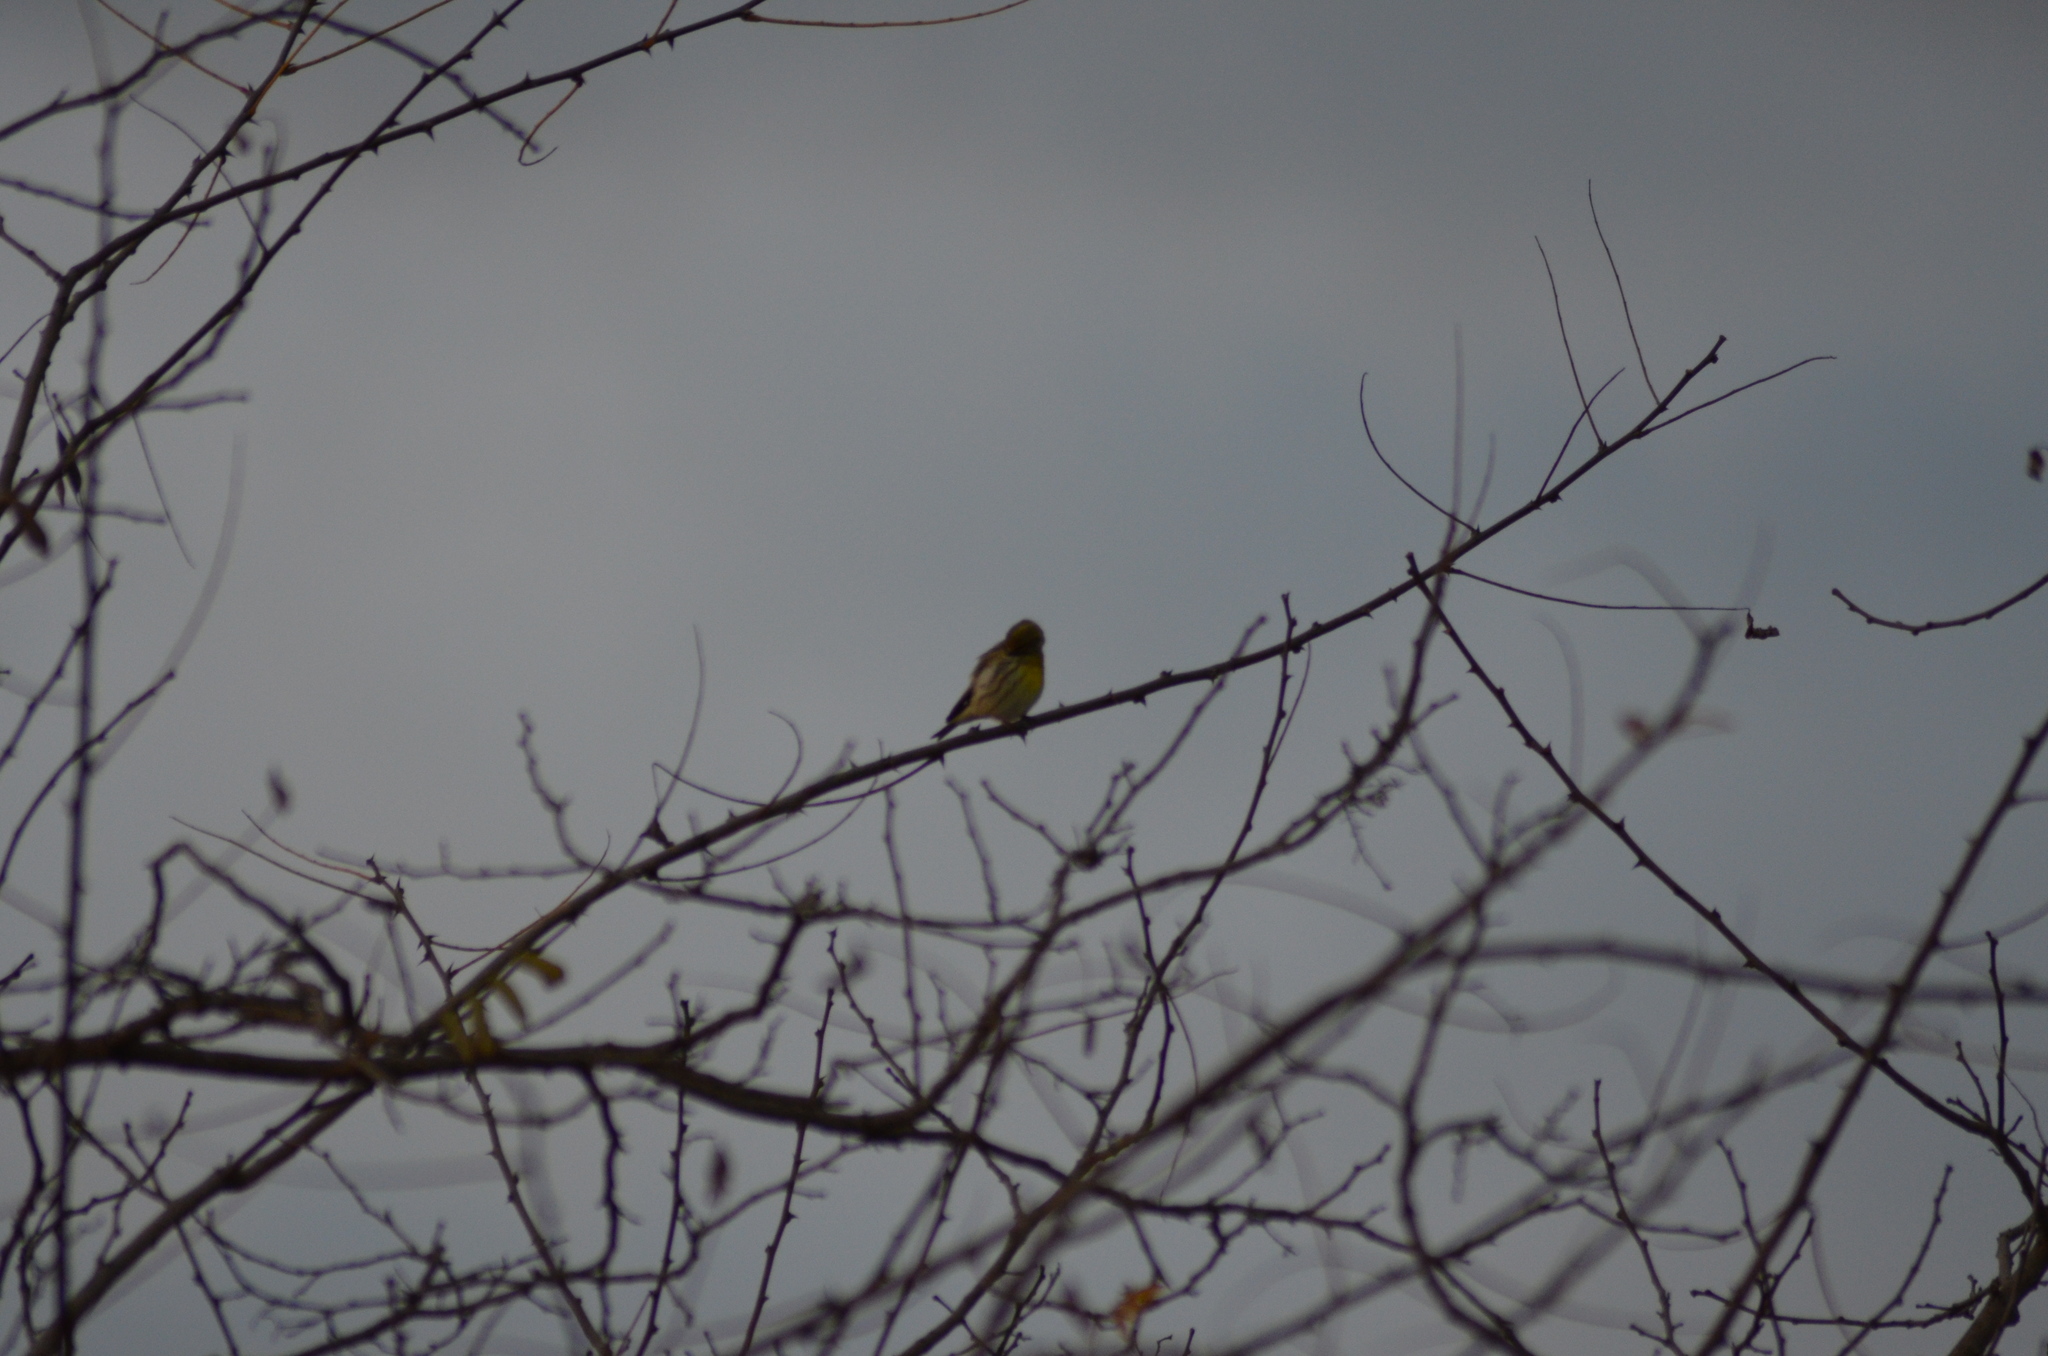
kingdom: Animalia
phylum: Chordata
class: Aves
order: Passeriformes
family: Fringillidae
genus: Serinus
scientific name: Serinus serinus
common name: European serin
